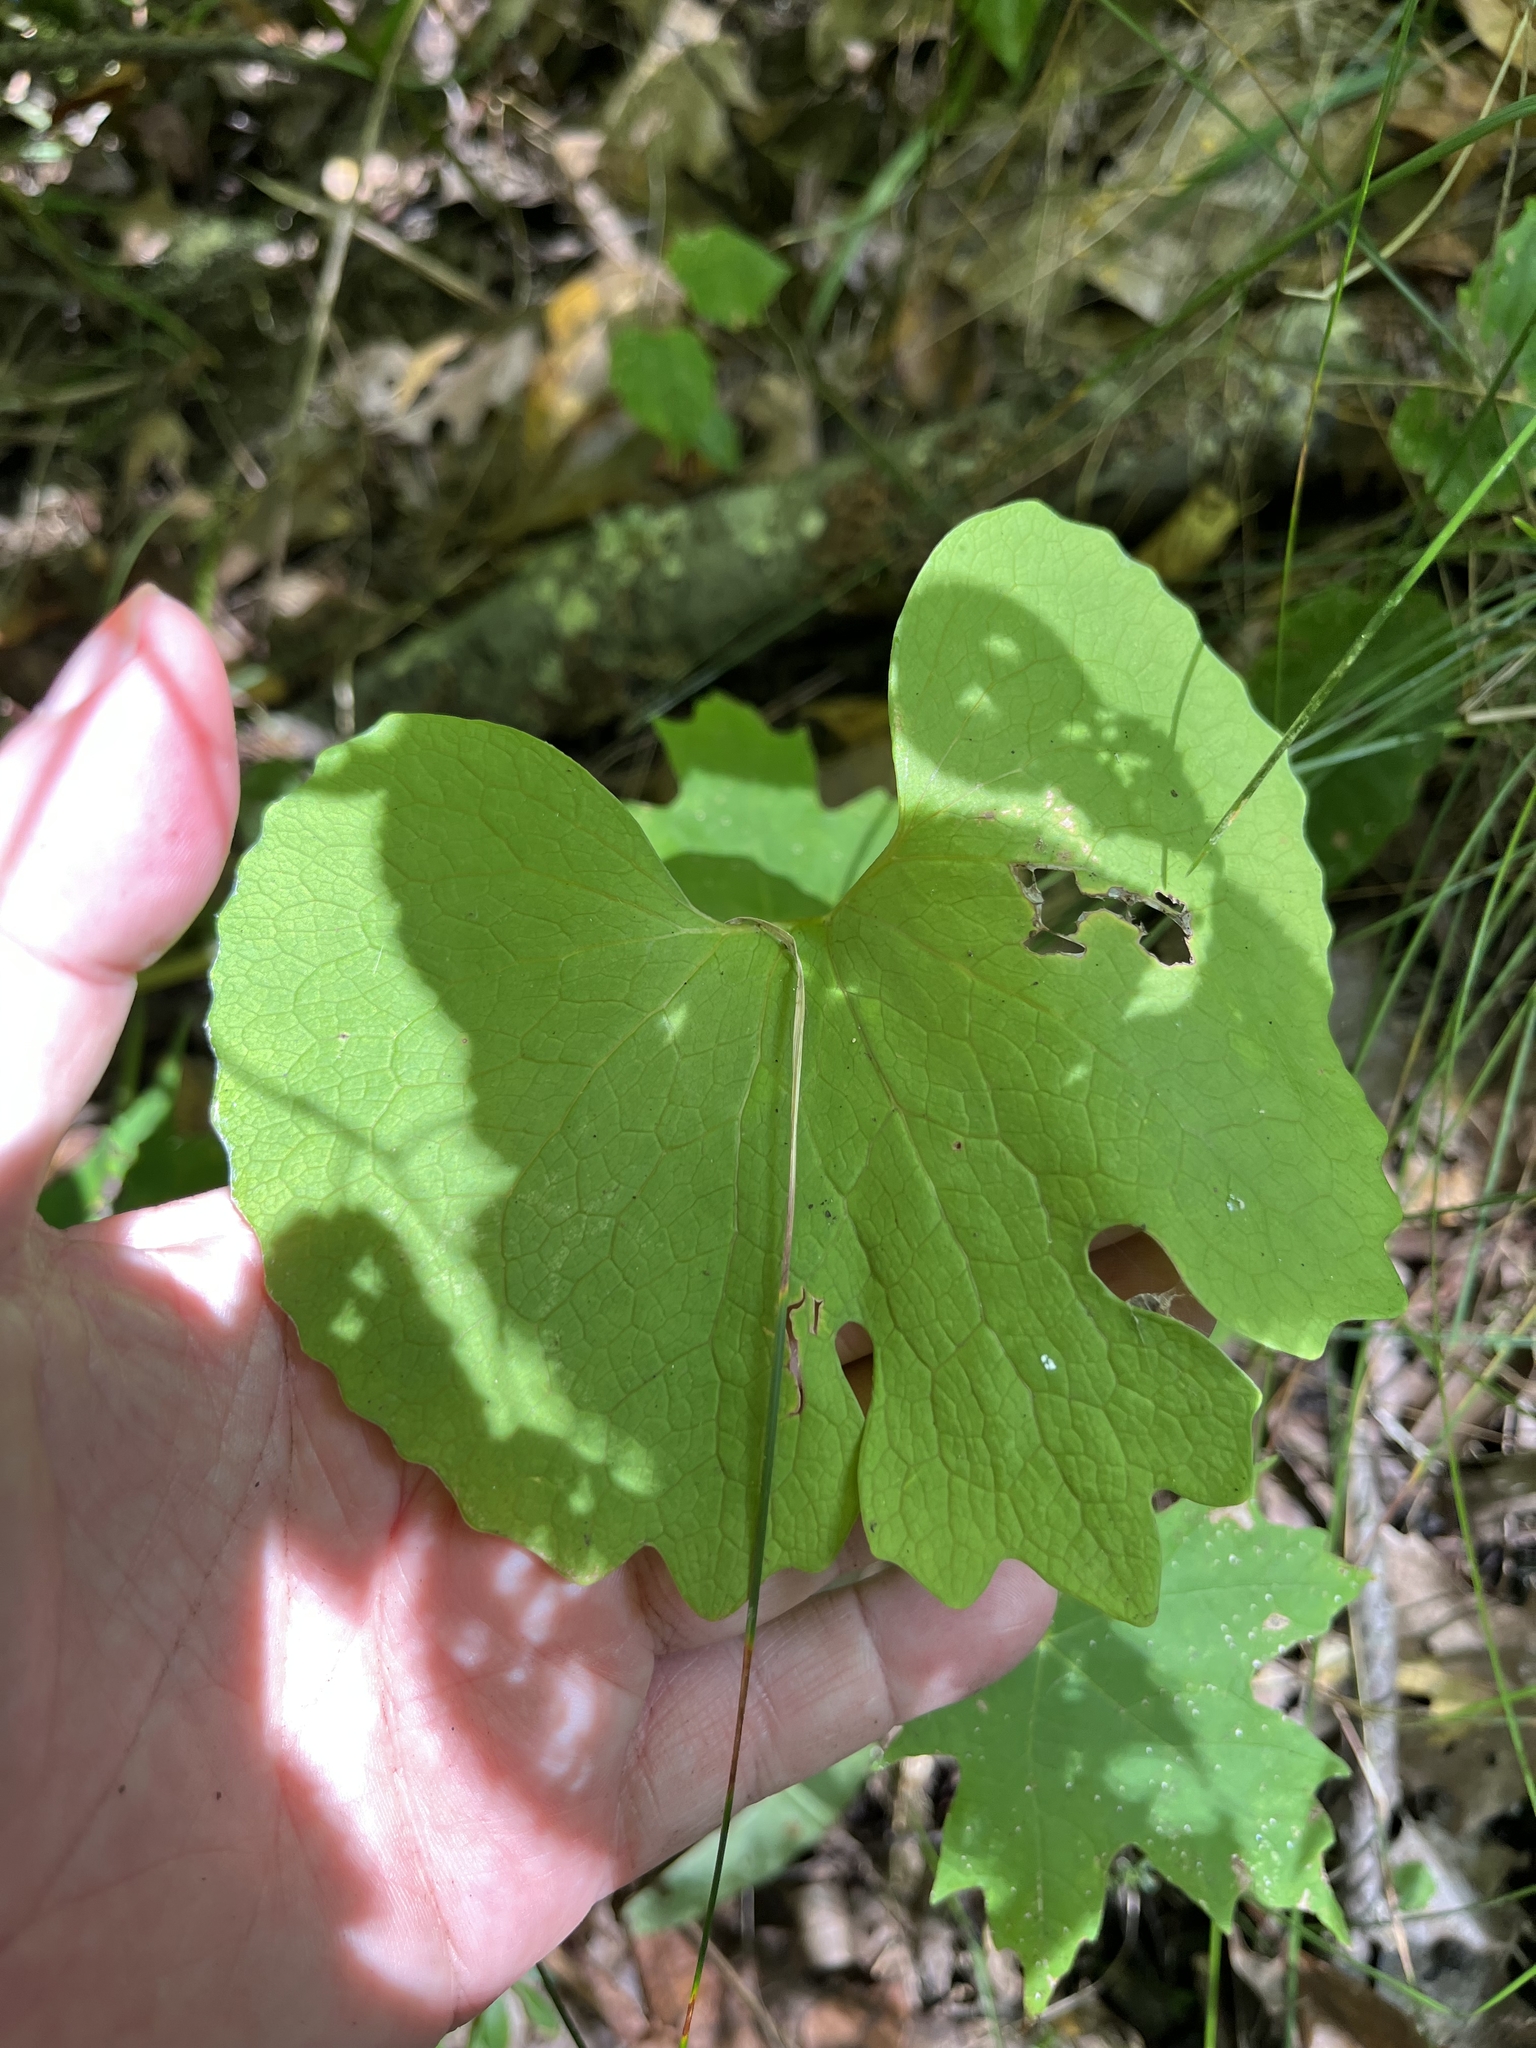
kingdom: Plantae
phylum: Tracheophyta
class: Magnoliopsida
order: Ranunculales
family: Papaveraceae
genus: Sanguinaria
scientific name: Sanguinaria canadensis
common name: Bloodroot
